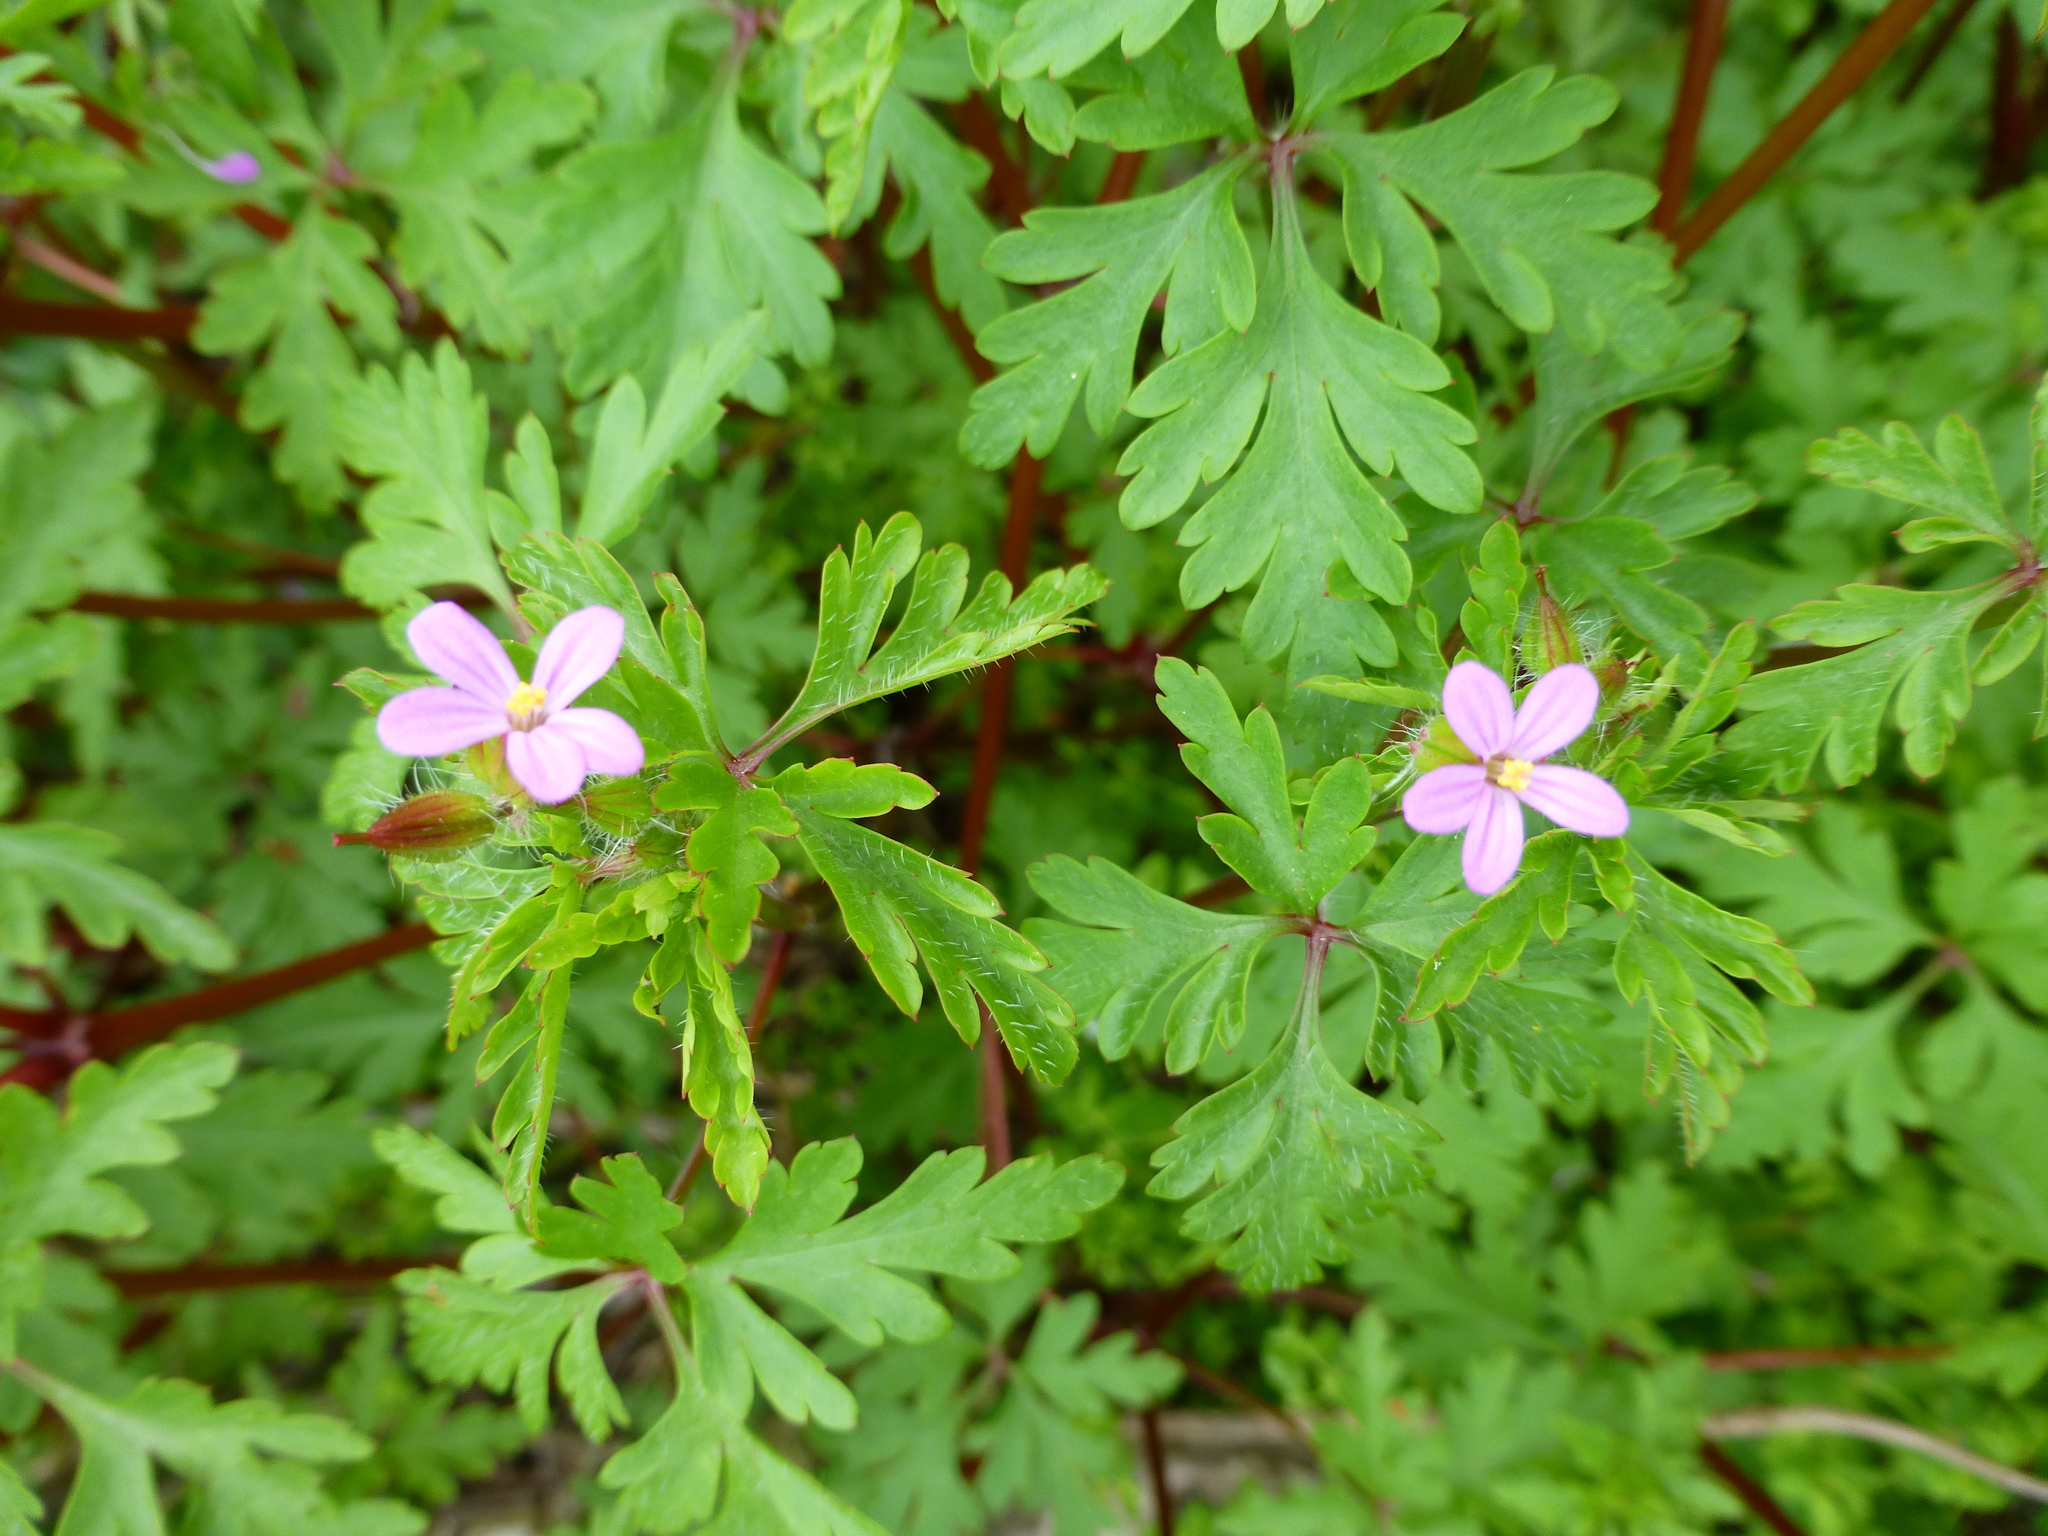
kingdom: Plantae
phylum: Tracheophyta
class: Magnoliopsida
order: Geraniales
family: Geraniaceae
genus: Geranium
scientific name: Geranium robertianum
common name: Herb-robert
